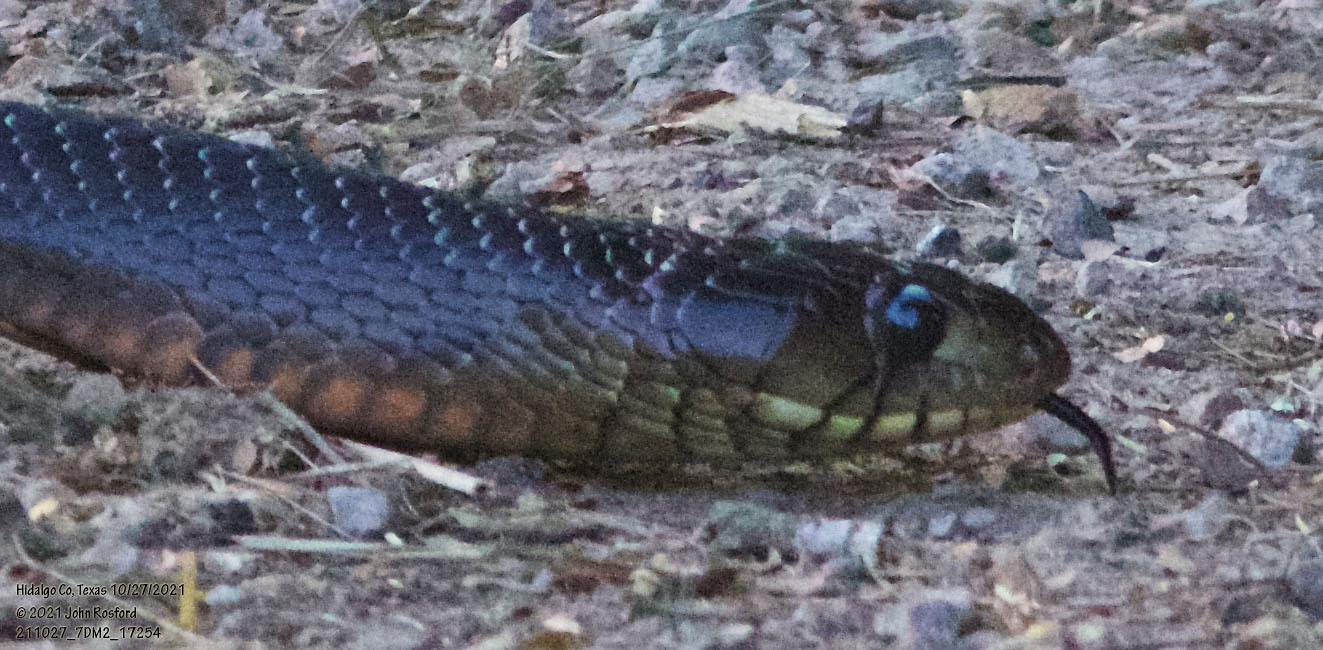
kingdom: Animalia
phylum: Chordata
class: Squamata
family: Colubridae
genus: Drymarchon
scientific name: Drymarchon melanurus
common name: Central american indigo snake
